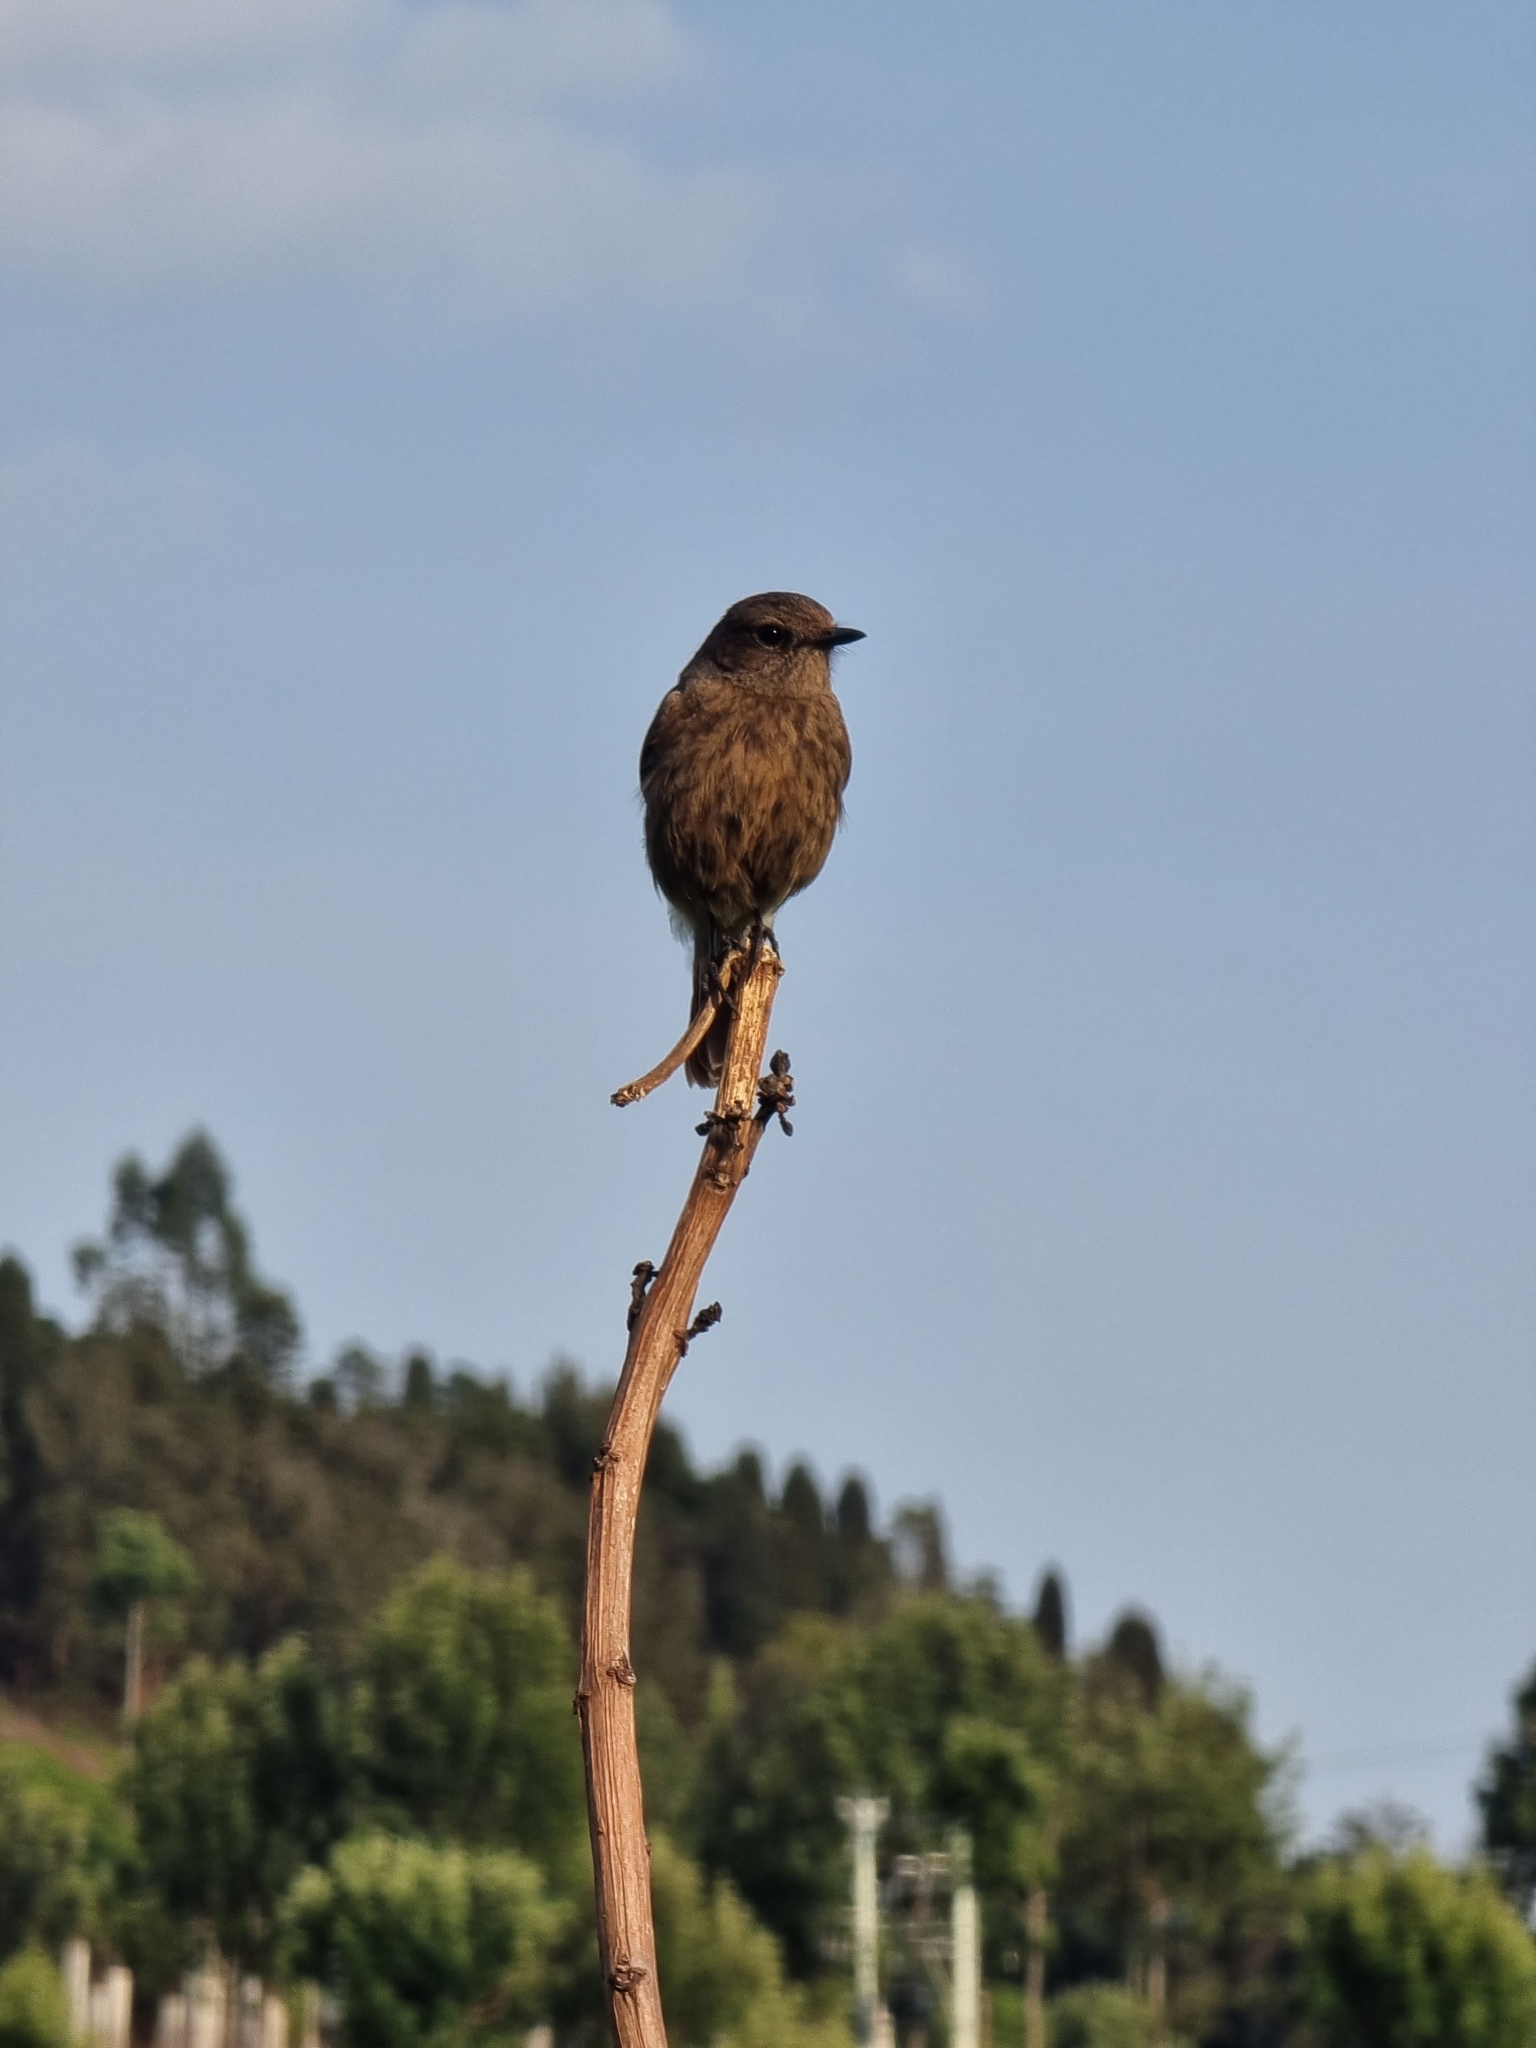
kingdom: Animalia
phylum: Chordata
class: Aves
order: Passeriformes
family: Muscicapidae
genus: Saxicola
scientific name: Saxicola caprata
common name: Pied bush chat
